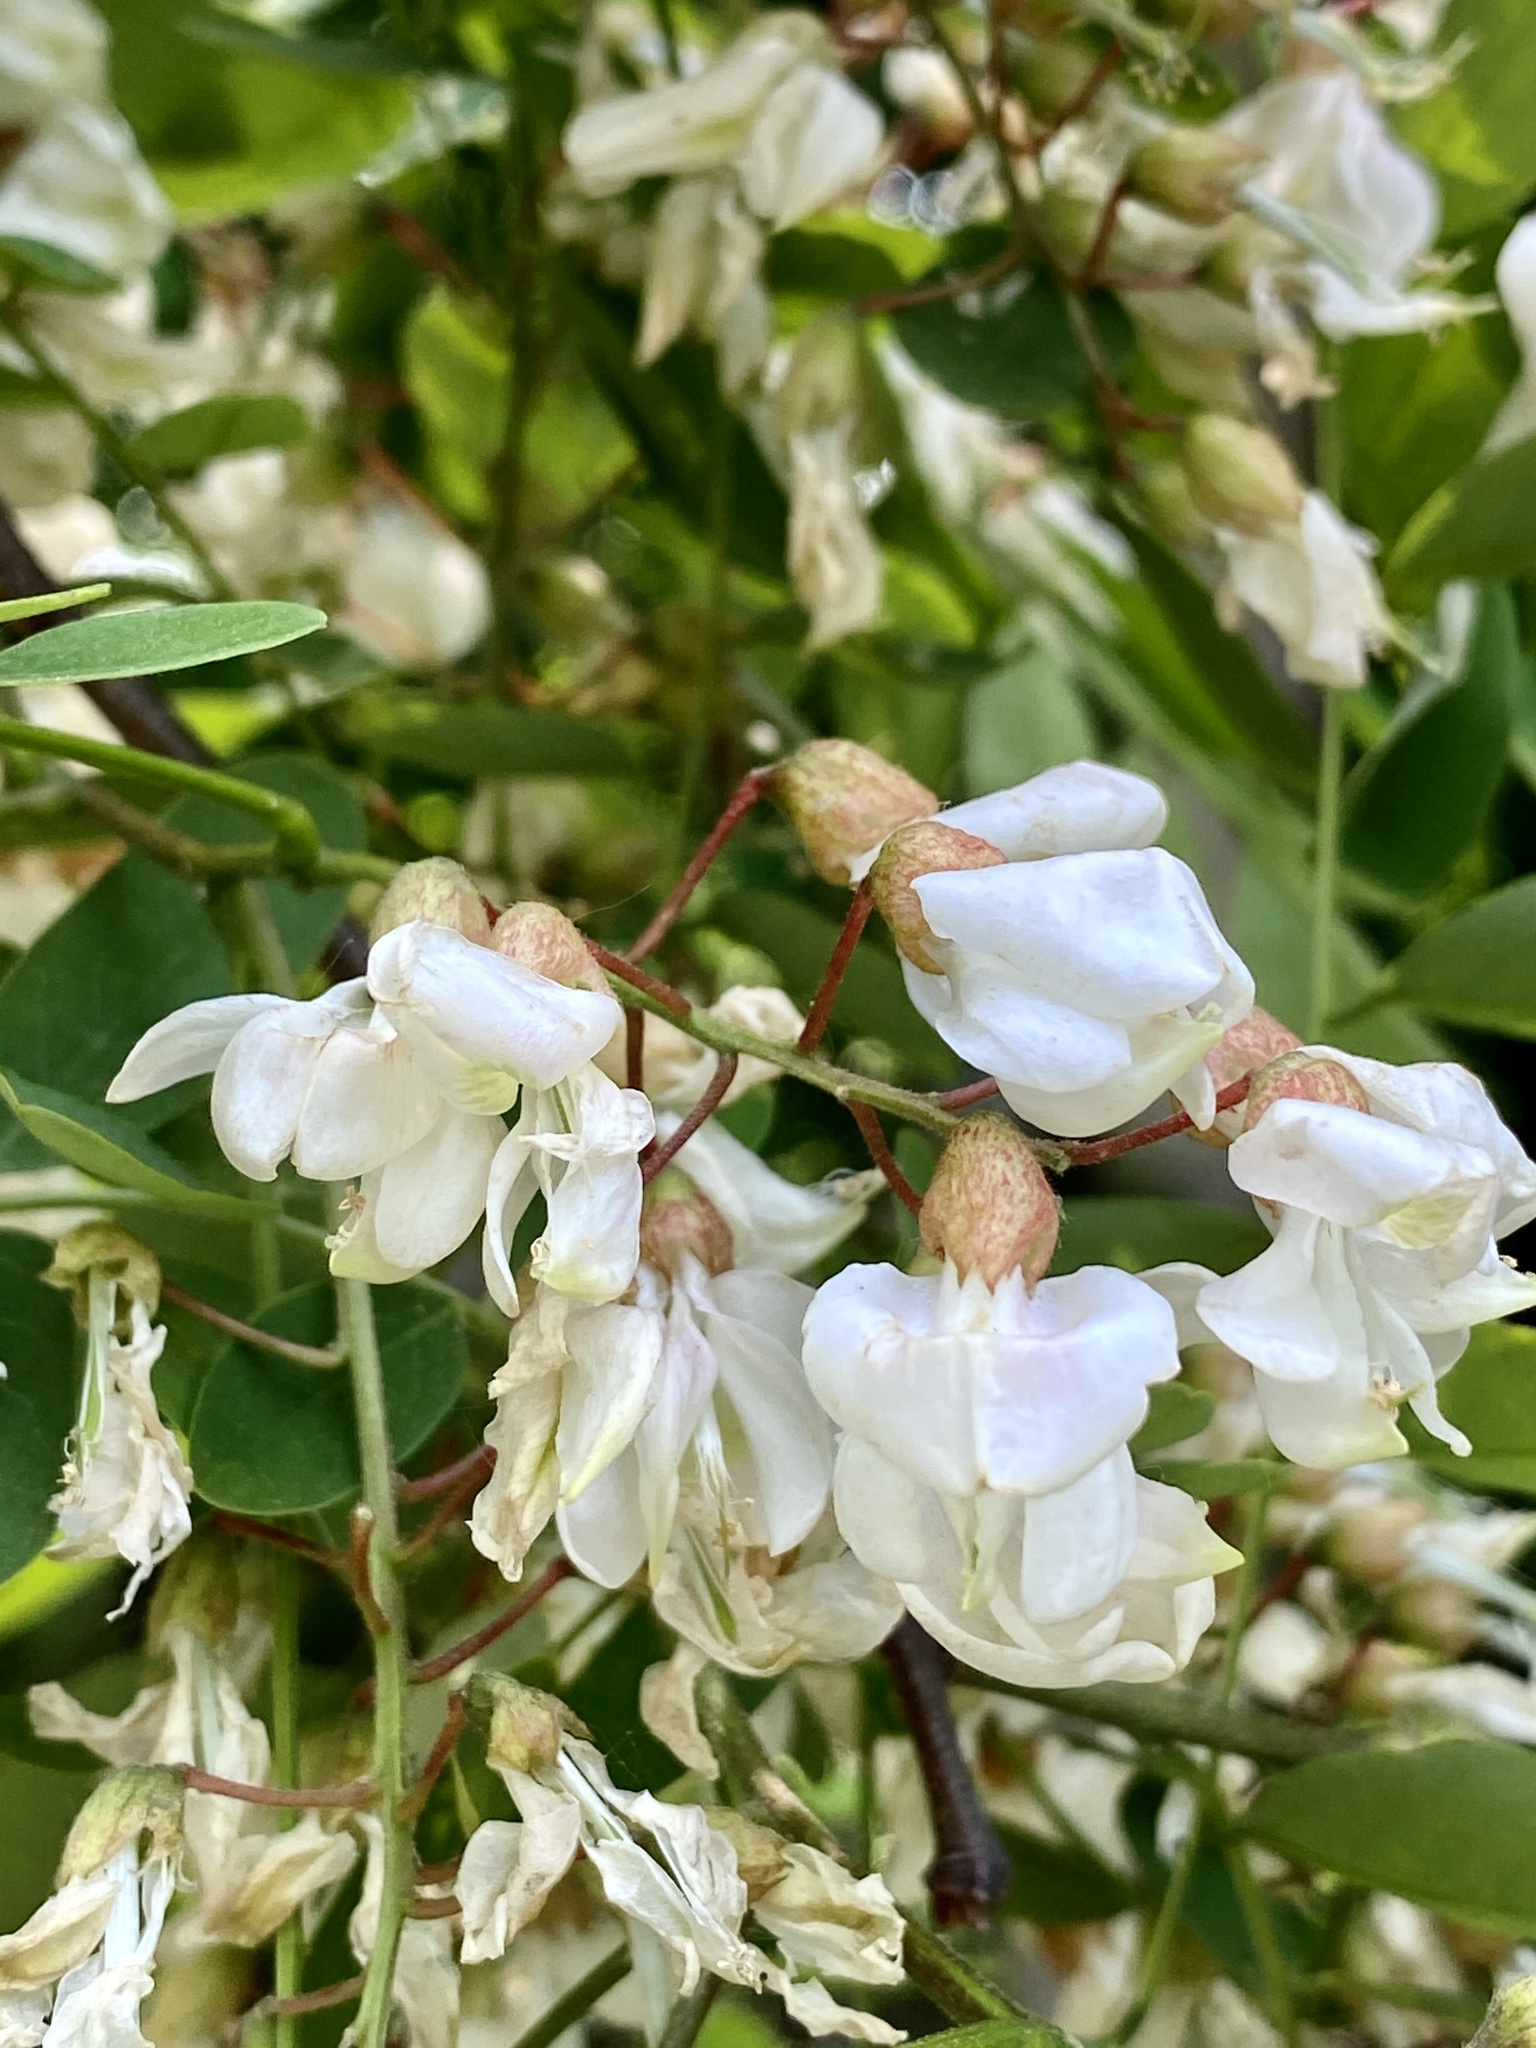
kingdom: Plantae
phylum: Tracheophyta
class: Magnoliopsida
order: Fabales
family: Fabaceae
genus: Robinia
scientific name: Robinia pseudoacacia
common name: Black locust
